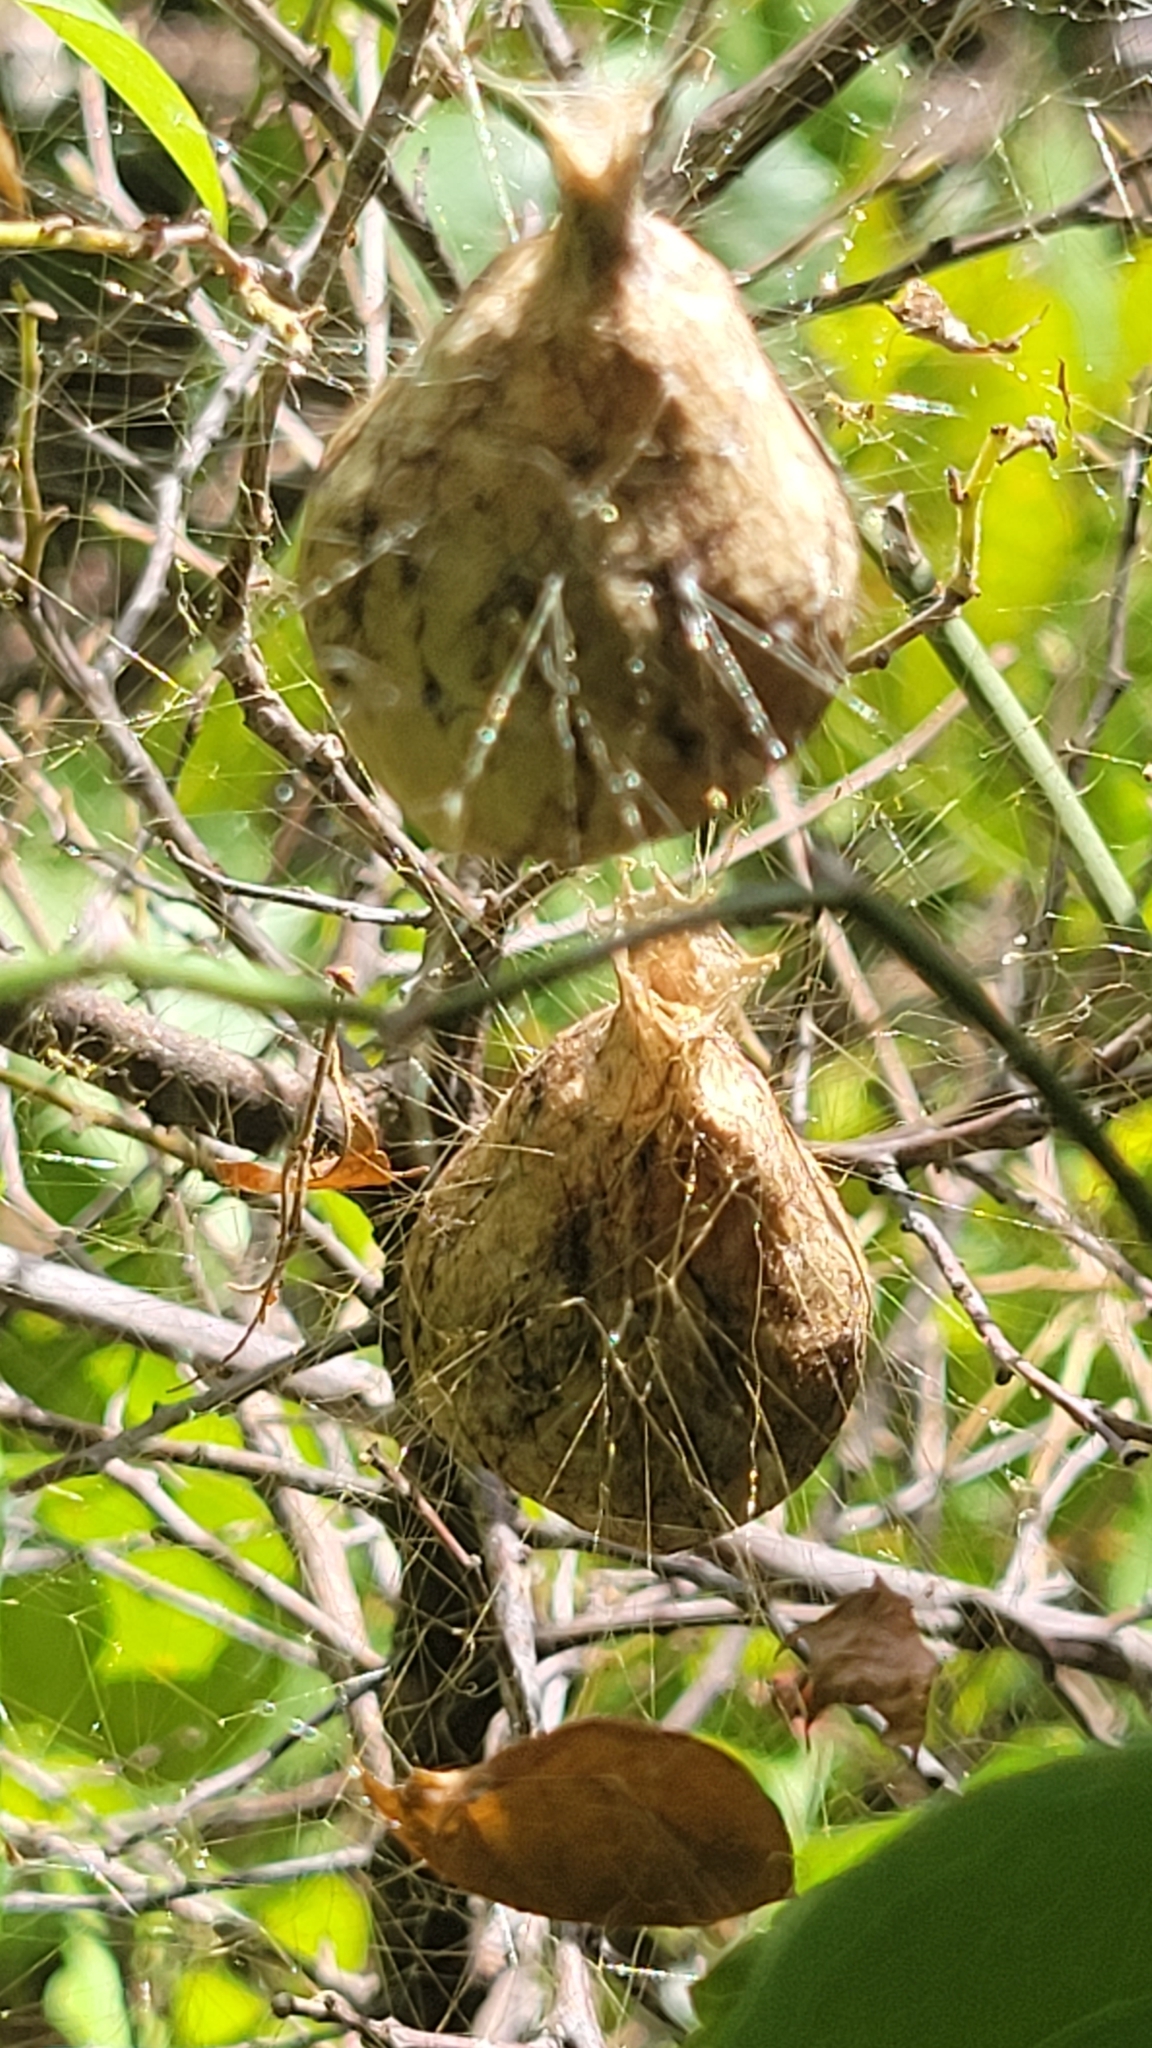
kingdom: Animalia
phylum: Arthropoda
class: Arachnida
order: Araneae
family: Araneidae
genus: Argiope
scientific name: Argiope aurantia
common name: Orb weavers
